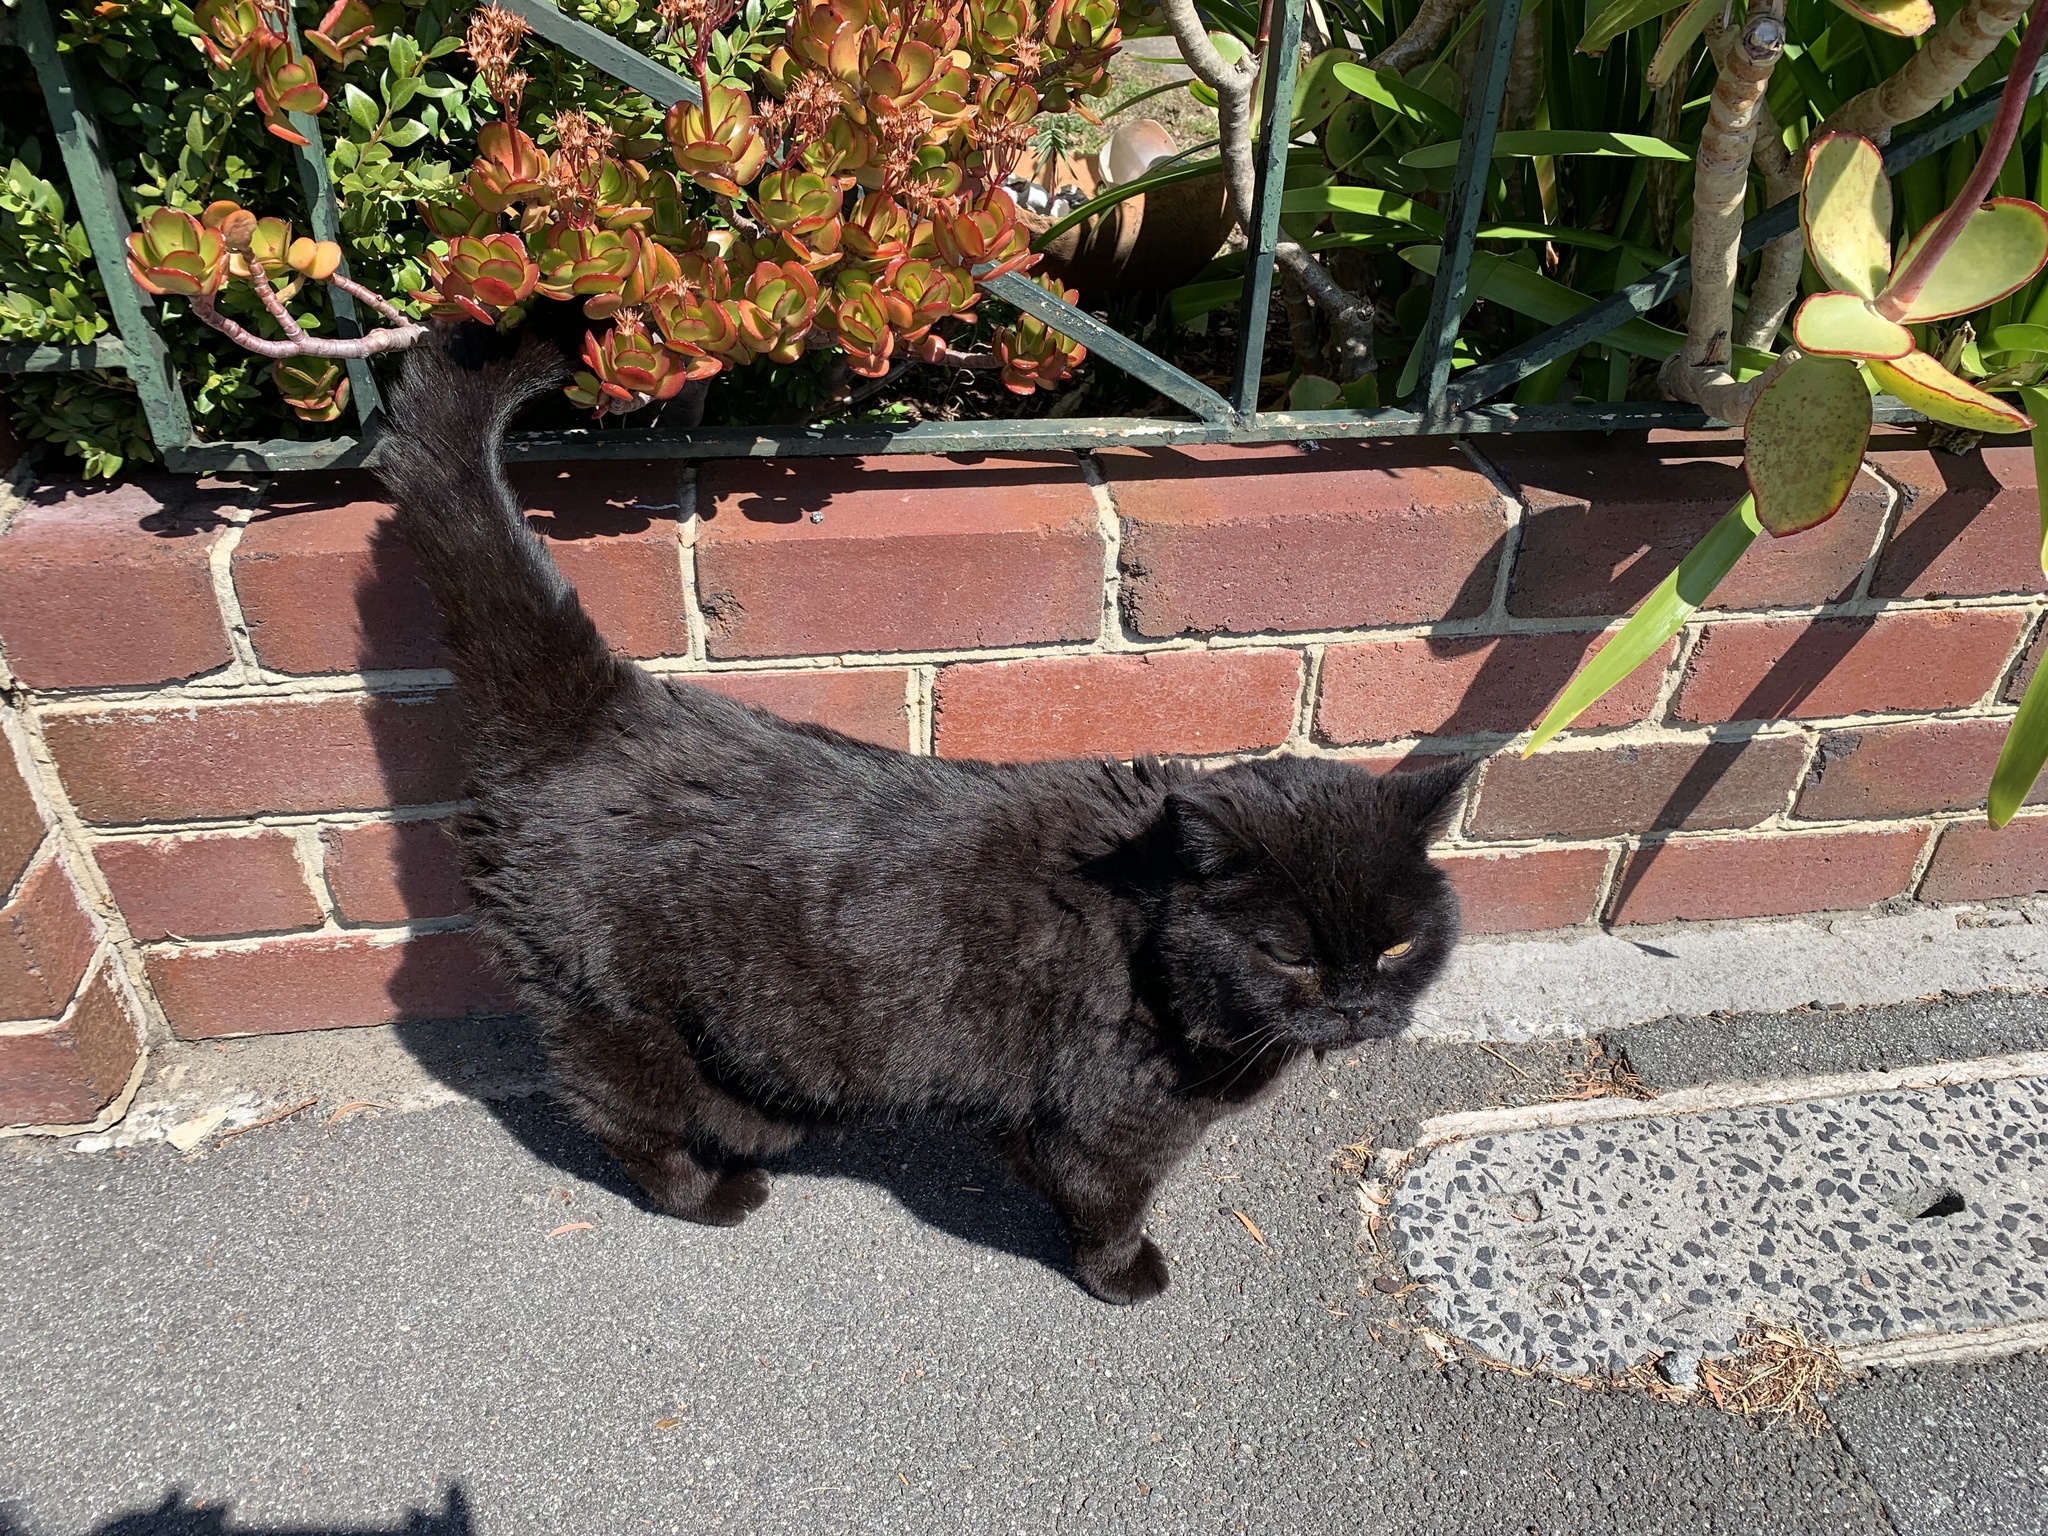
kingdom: Animalia
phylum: Chordata
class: Mammalia
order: Carnivora
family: Felidae
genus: Felis
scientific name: Felis catus
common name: Domestic cat
